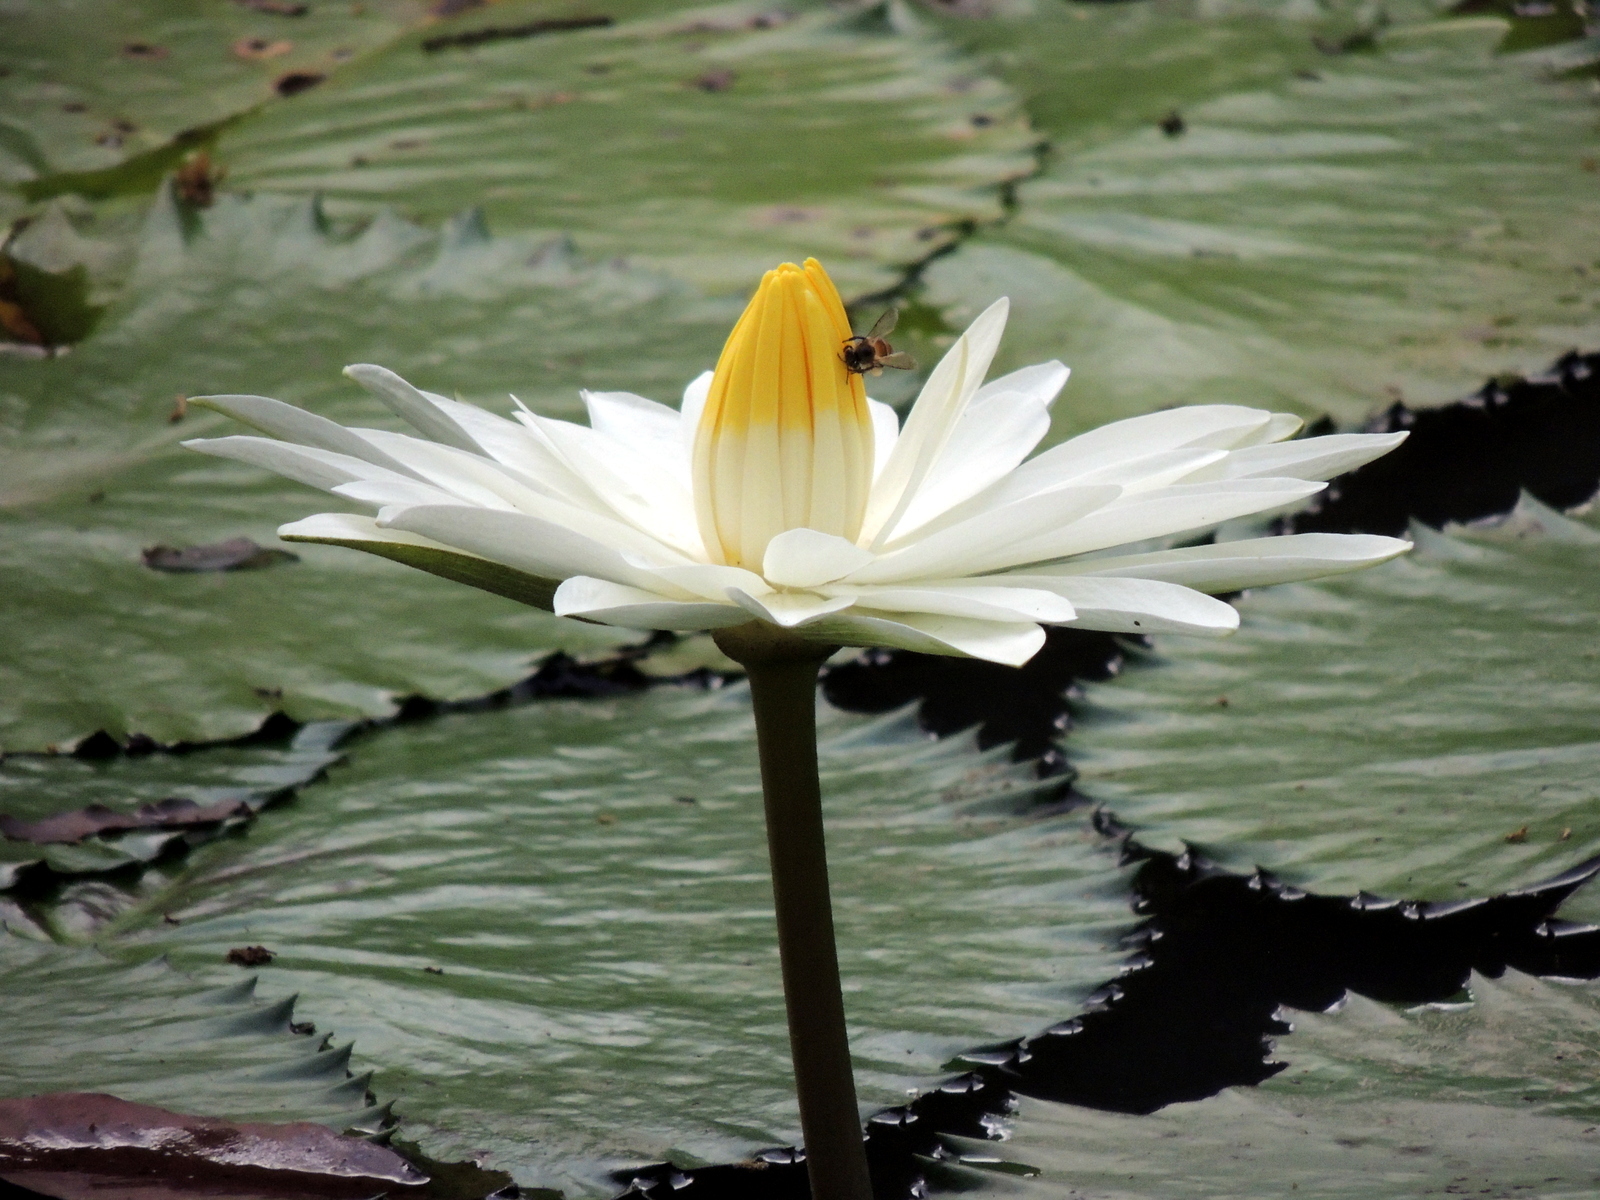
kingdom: Animalia
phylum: Arthropoda
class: Insecta
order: Hymenoptera
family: Apidae
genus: Apis
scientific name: Apis
